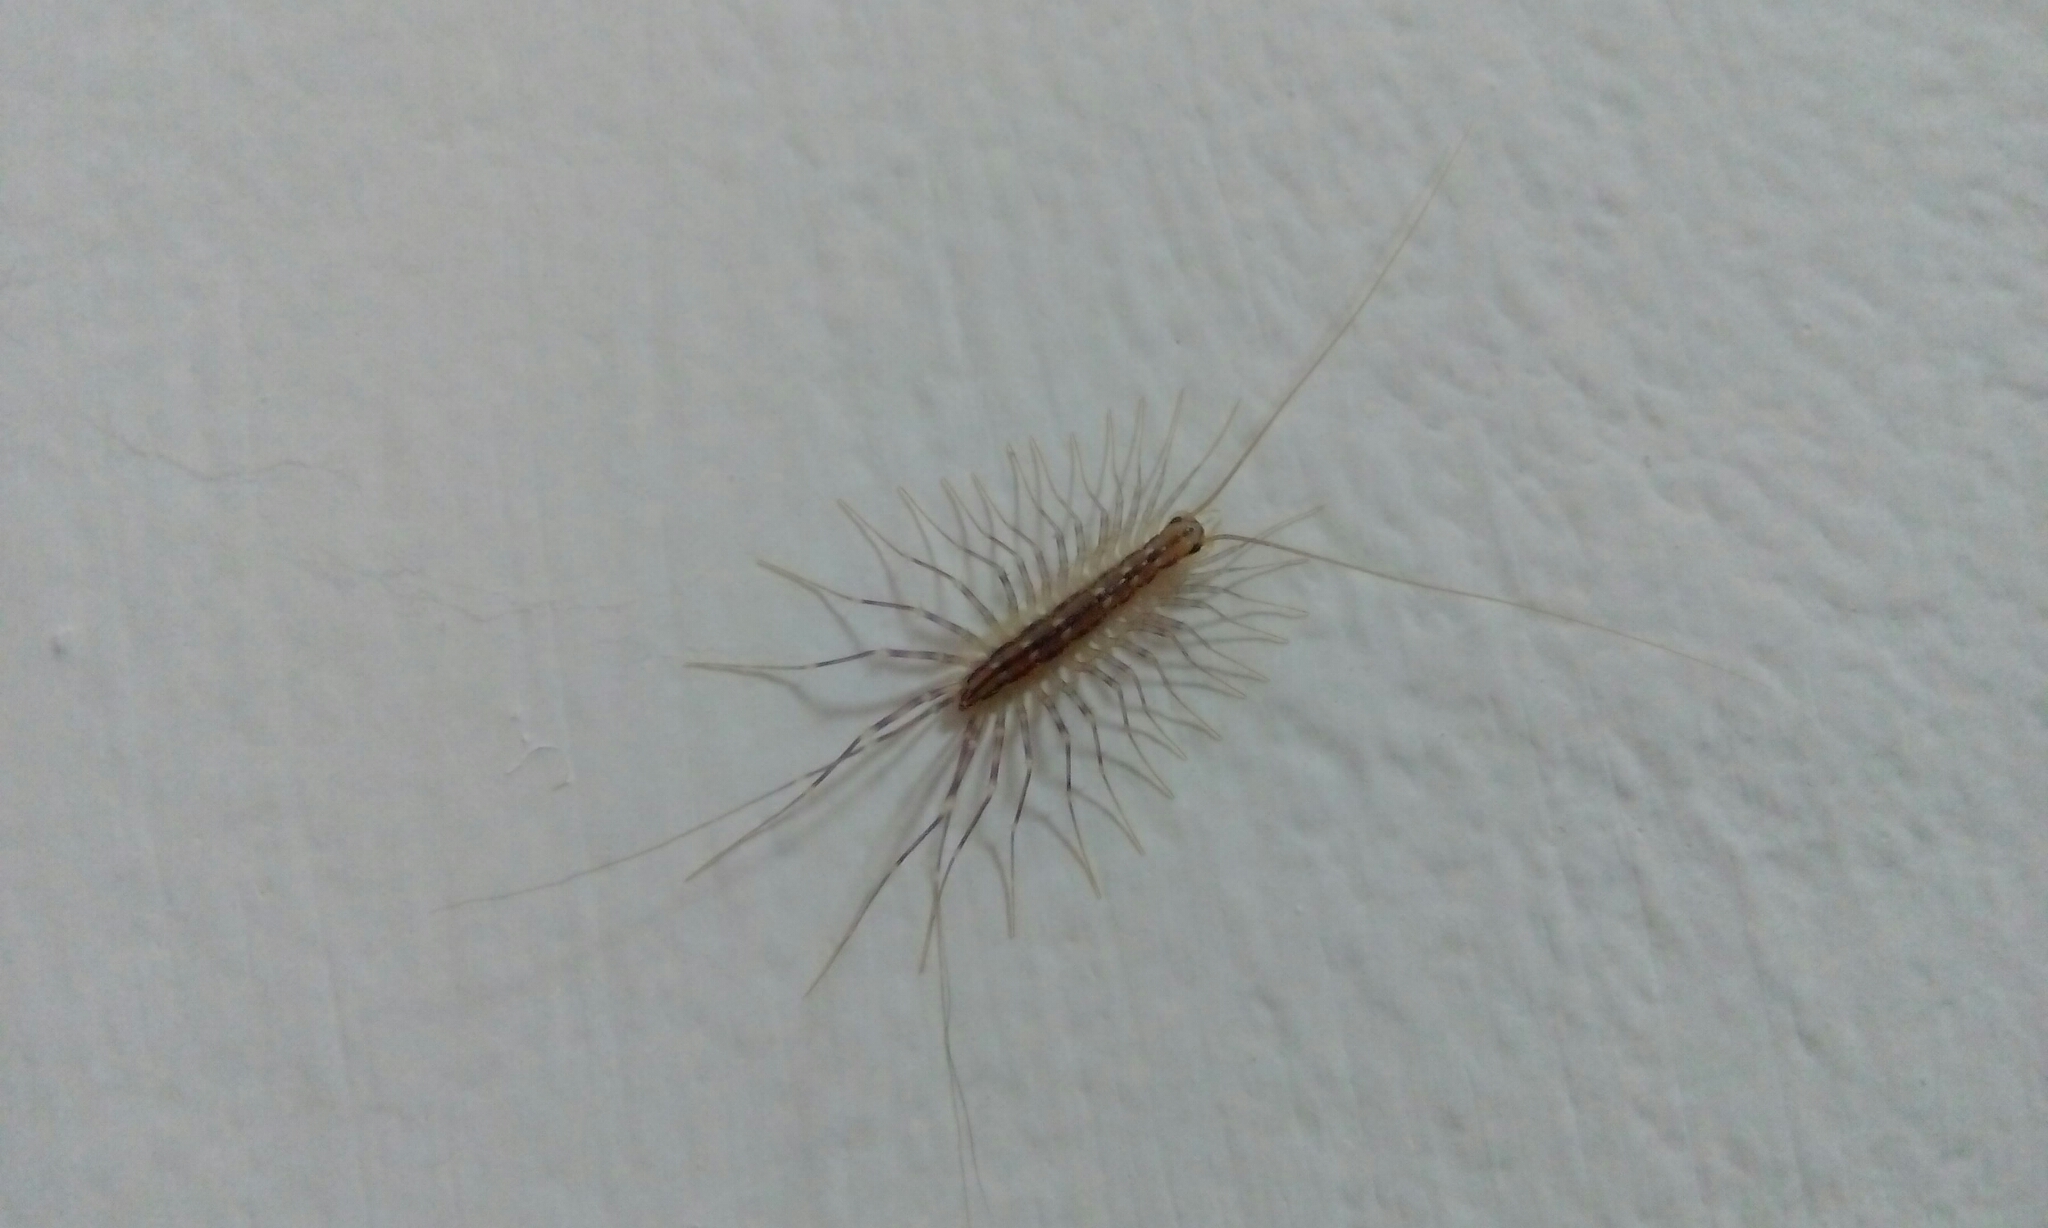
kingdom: Animalia
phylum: Arthropoda
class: Chilopoda
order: Scutigeromorpha
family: Scutigeridae
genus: Scutigera
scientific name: Scutigera coleoptrata
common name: House centipede
